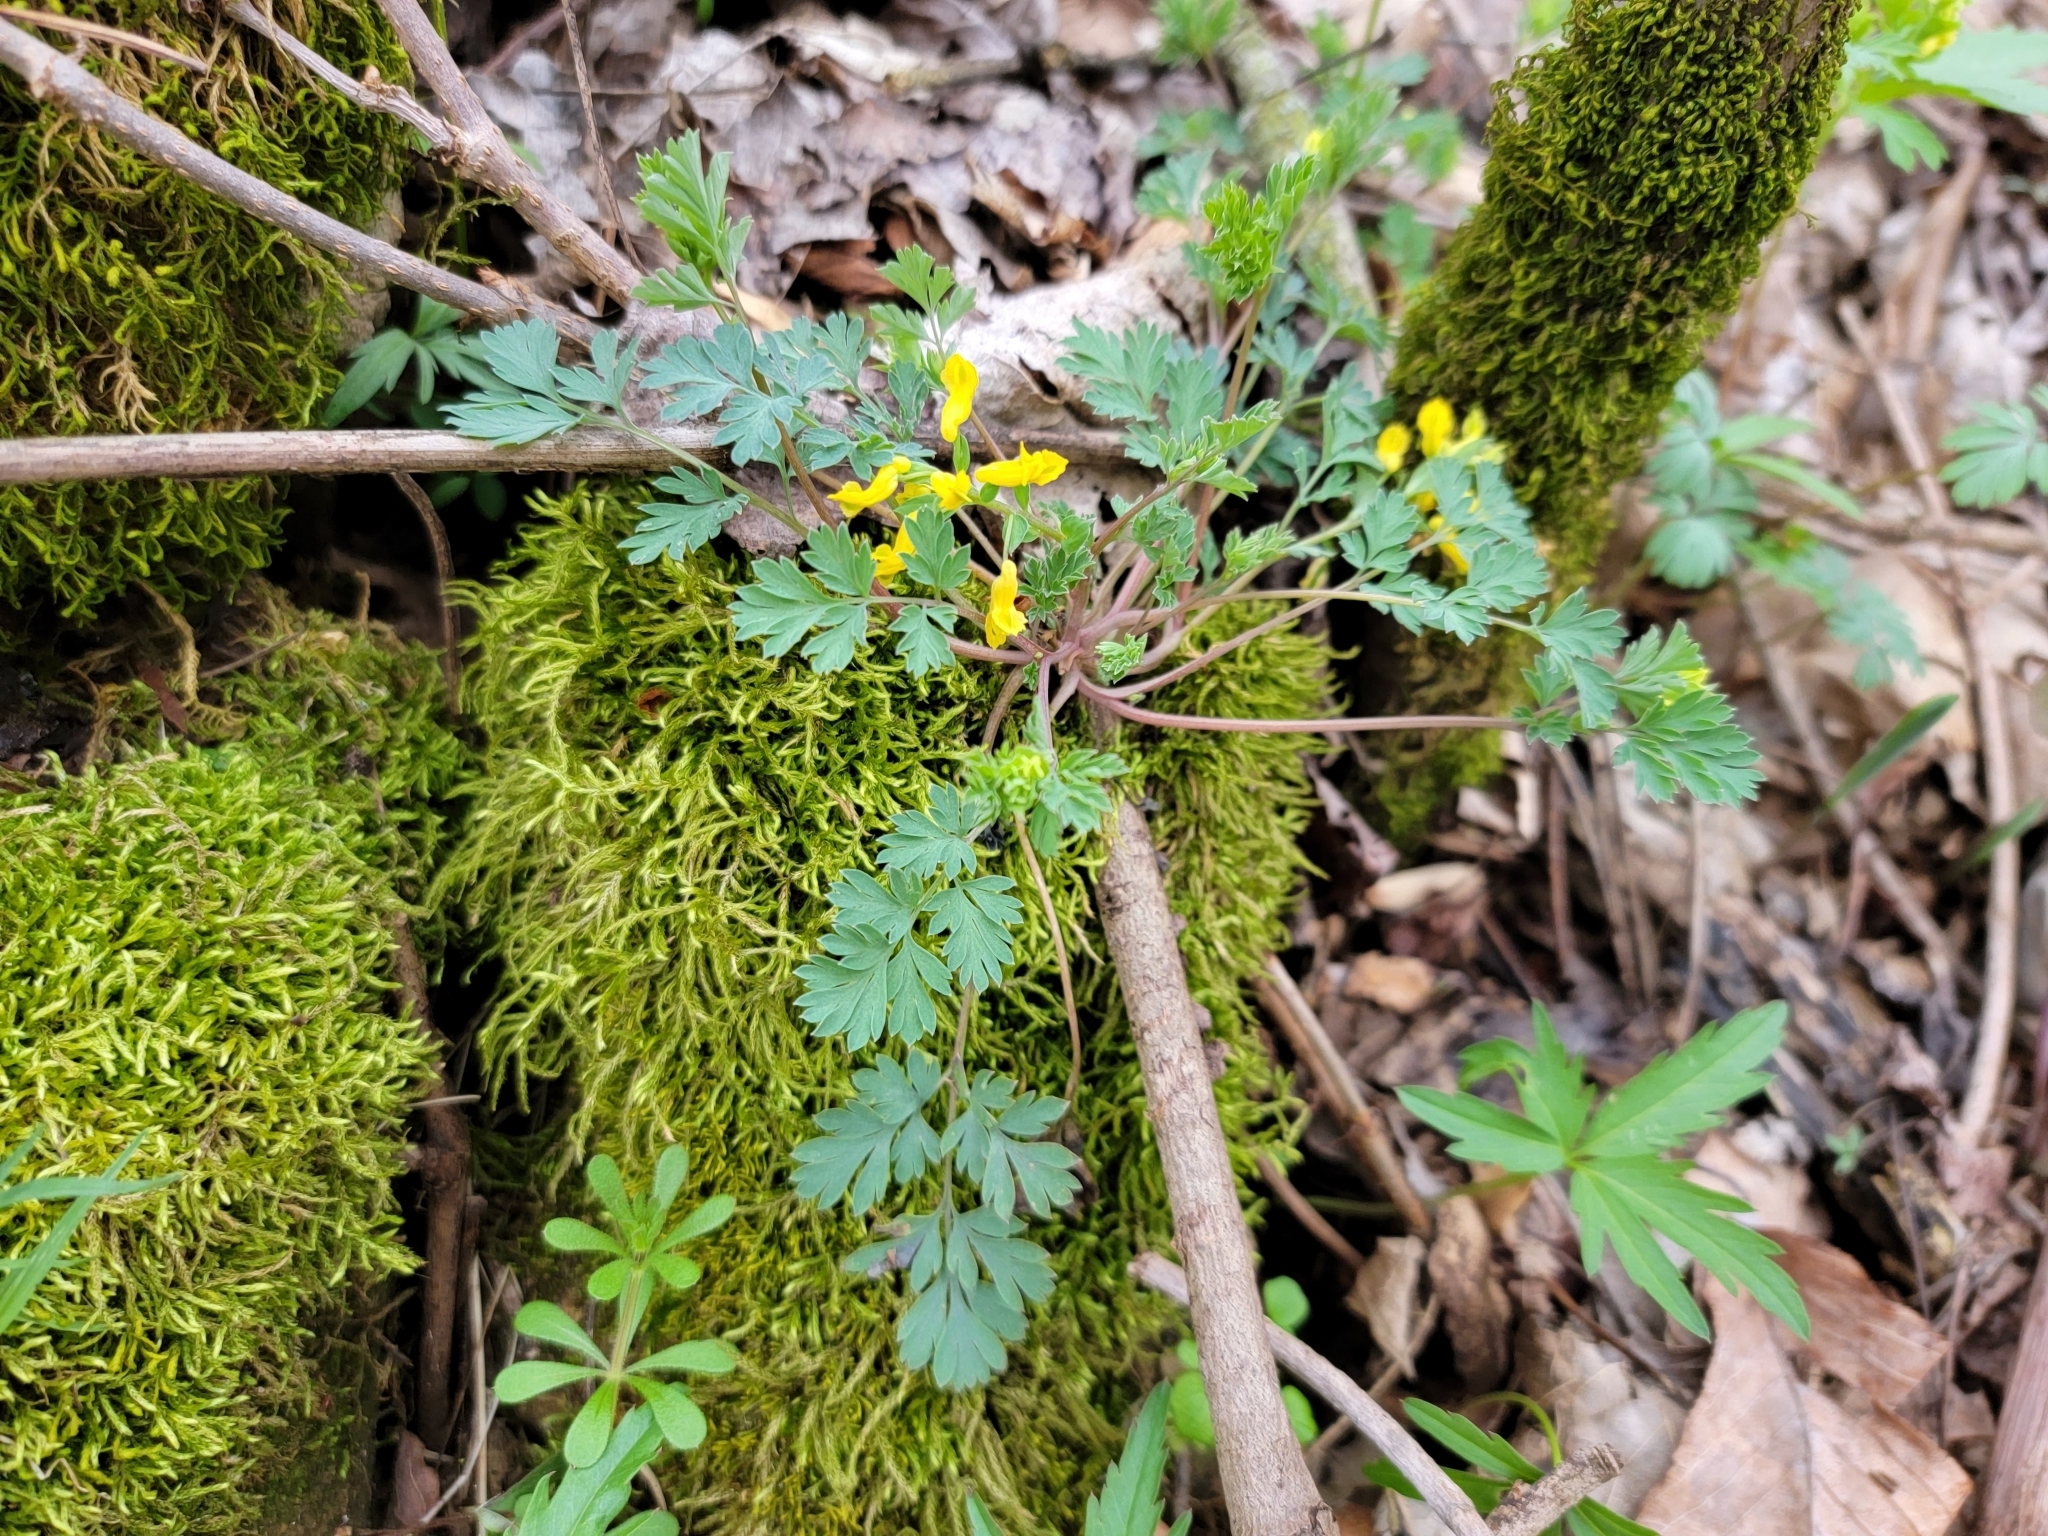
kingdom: Plantae
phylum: Tracheophyta
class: Magnoliopsida
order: Ranunculales
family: Papaveraceae
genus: Corydalis
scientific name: Corydalis flavula
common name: Yellow corydalis
